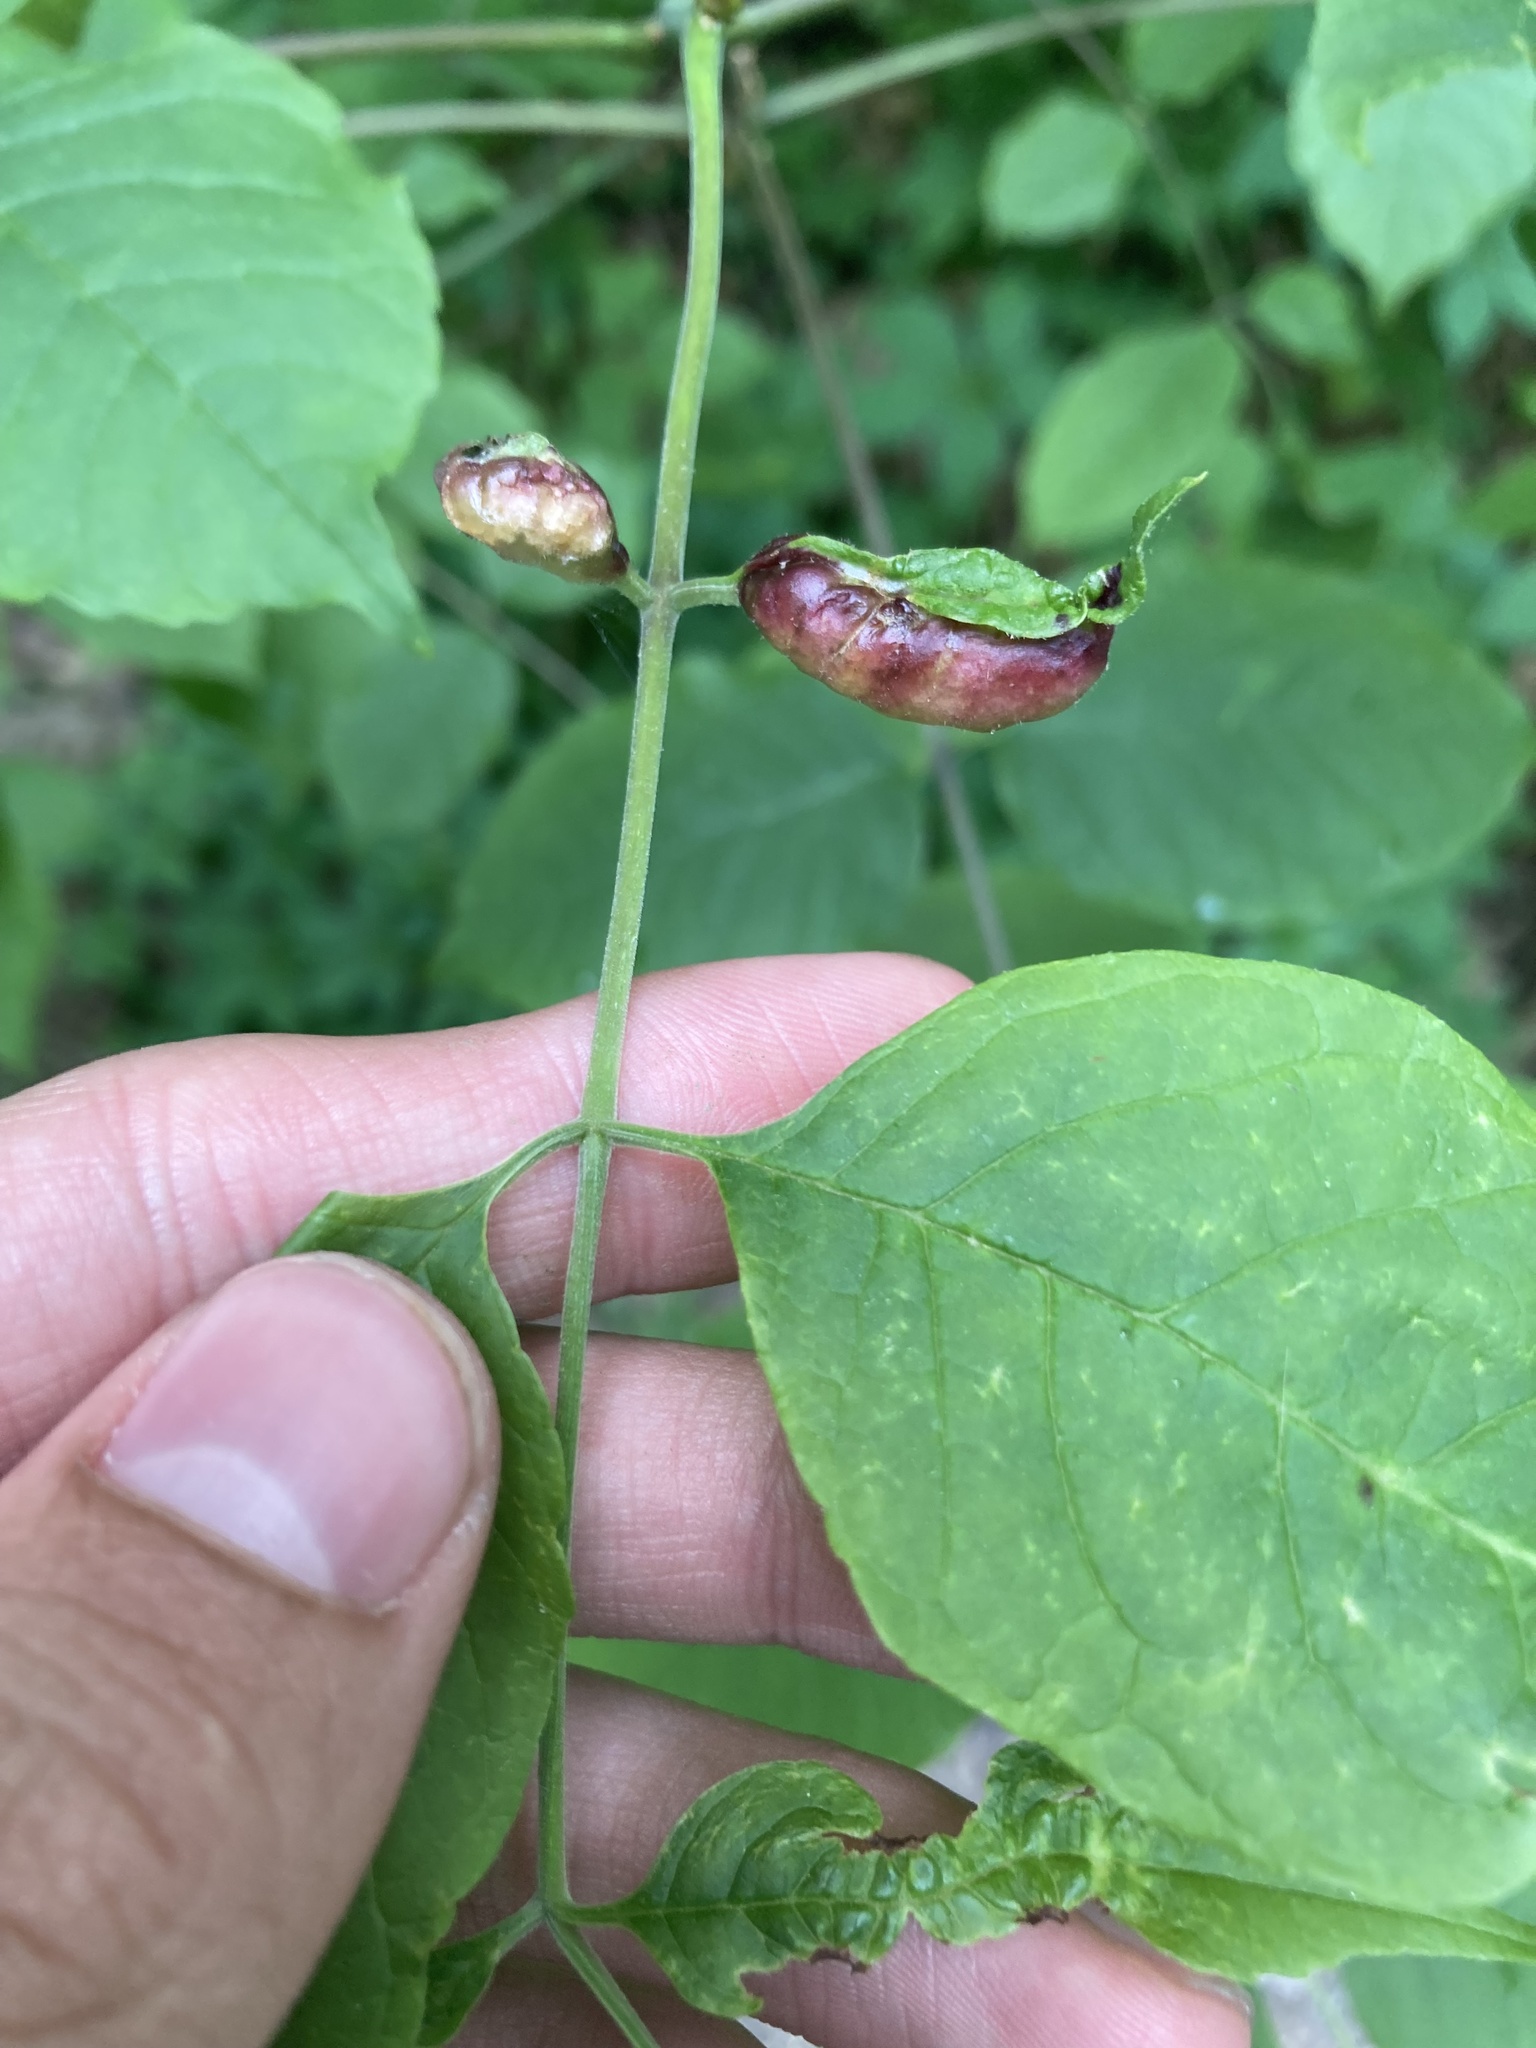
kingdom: Animalia
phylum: Arthropoda
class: Insecta
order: Diptera
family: Cecidomyiidae
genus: Dasineura
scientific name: Dasineura tumidosae
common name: Ash petiole gall midge
